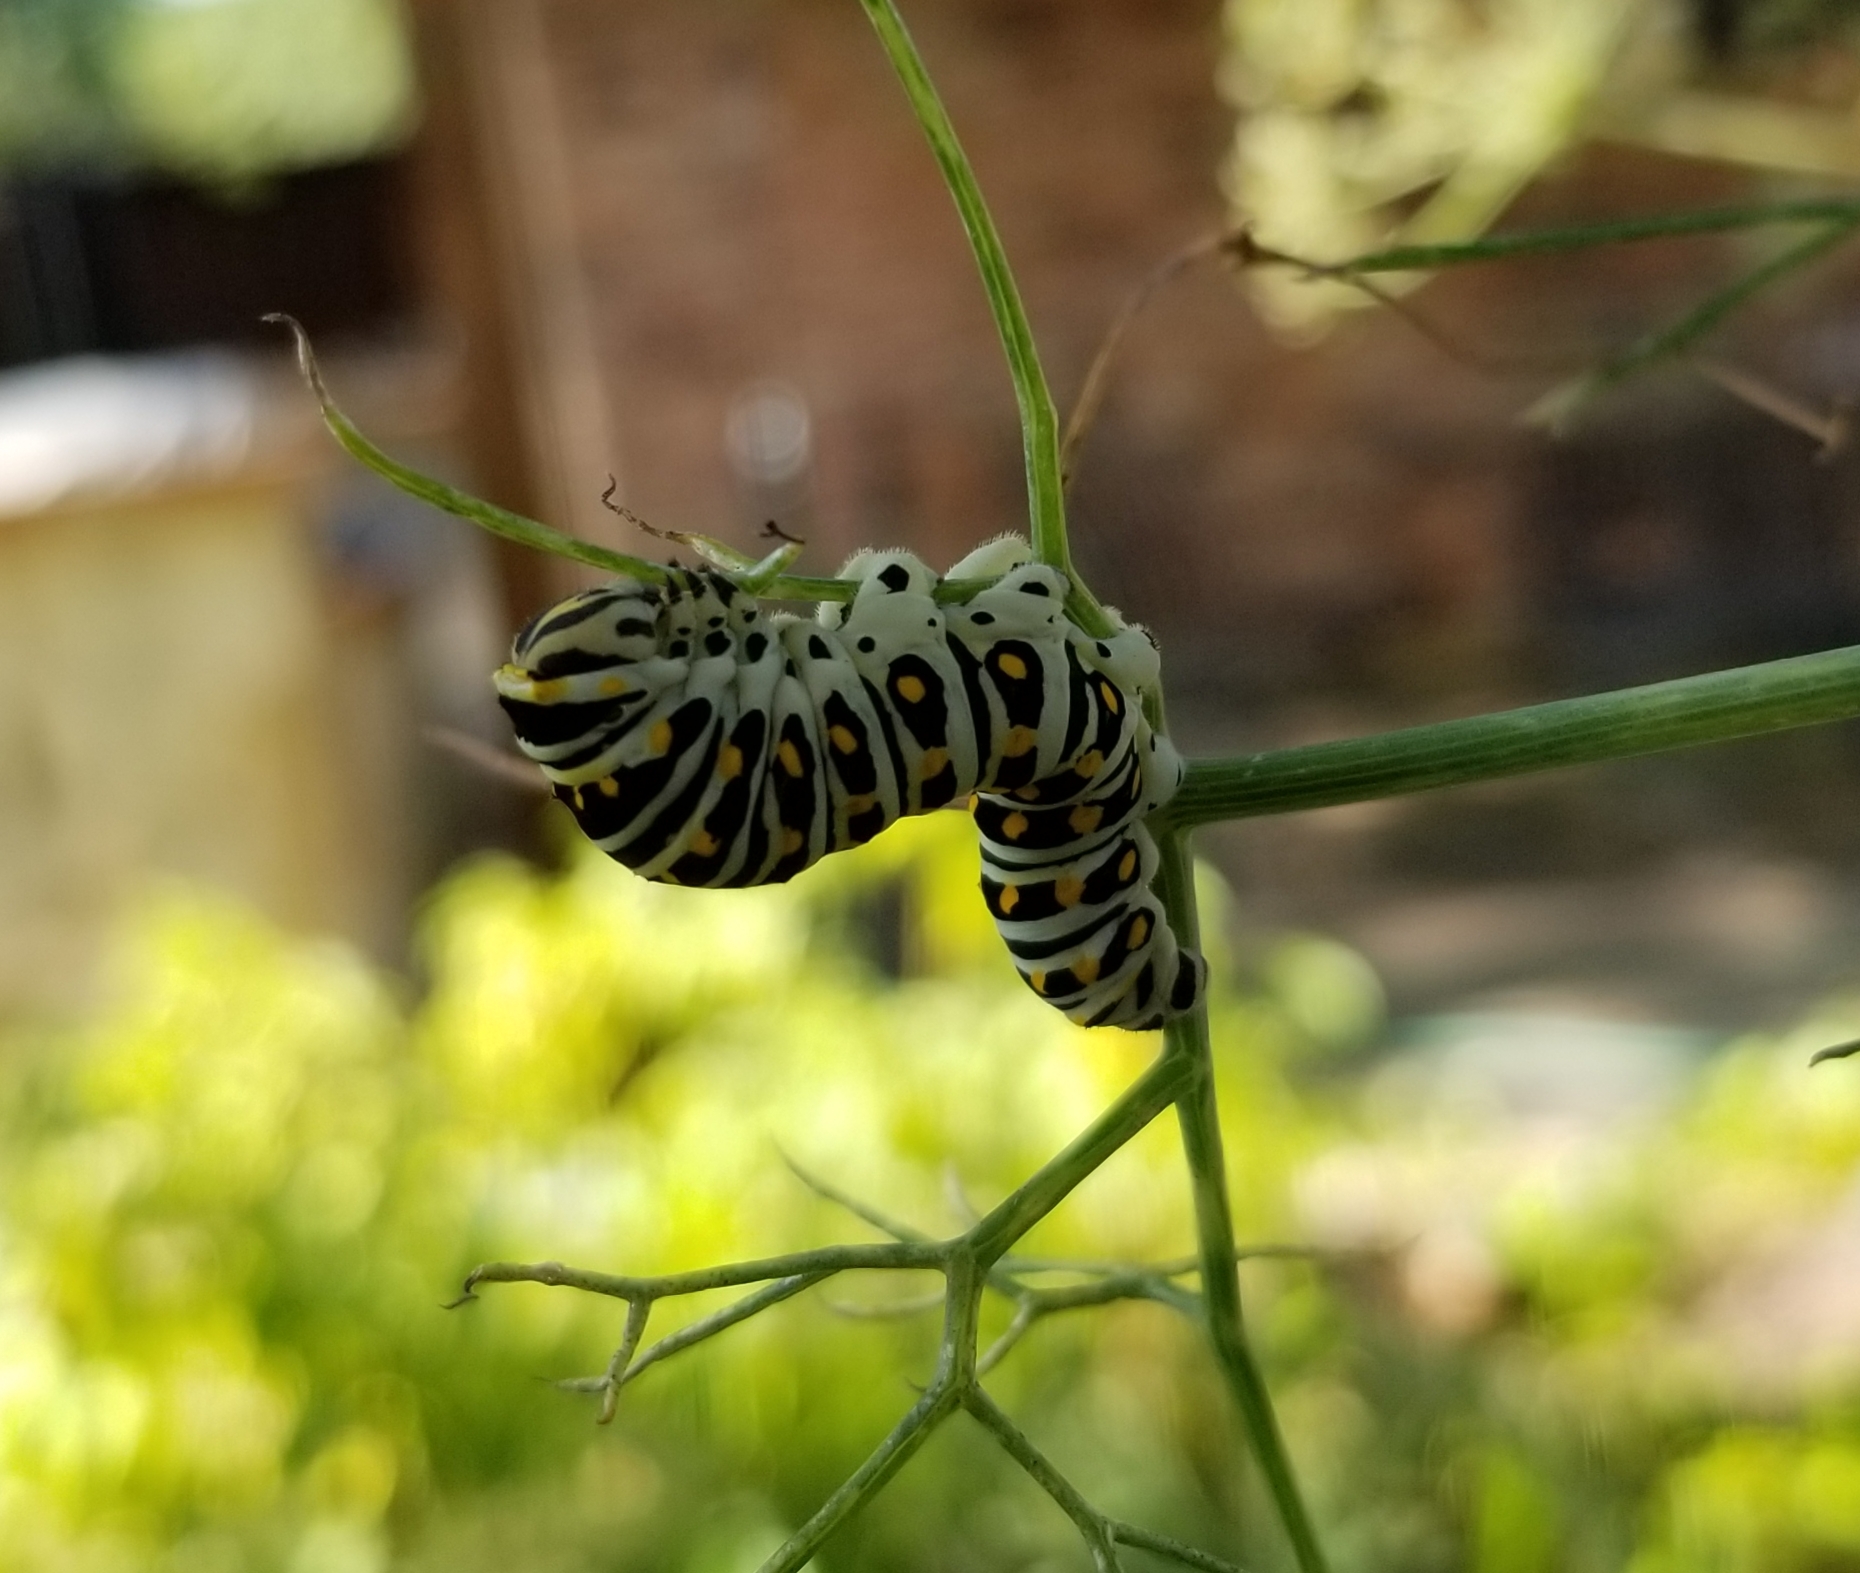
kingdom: Animalia
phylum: Arthropoda
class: Insecta
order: Lepidoptera
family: Papilionidae
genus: Papilio
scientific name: Papilio polyxenes
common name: Black swallowtail
